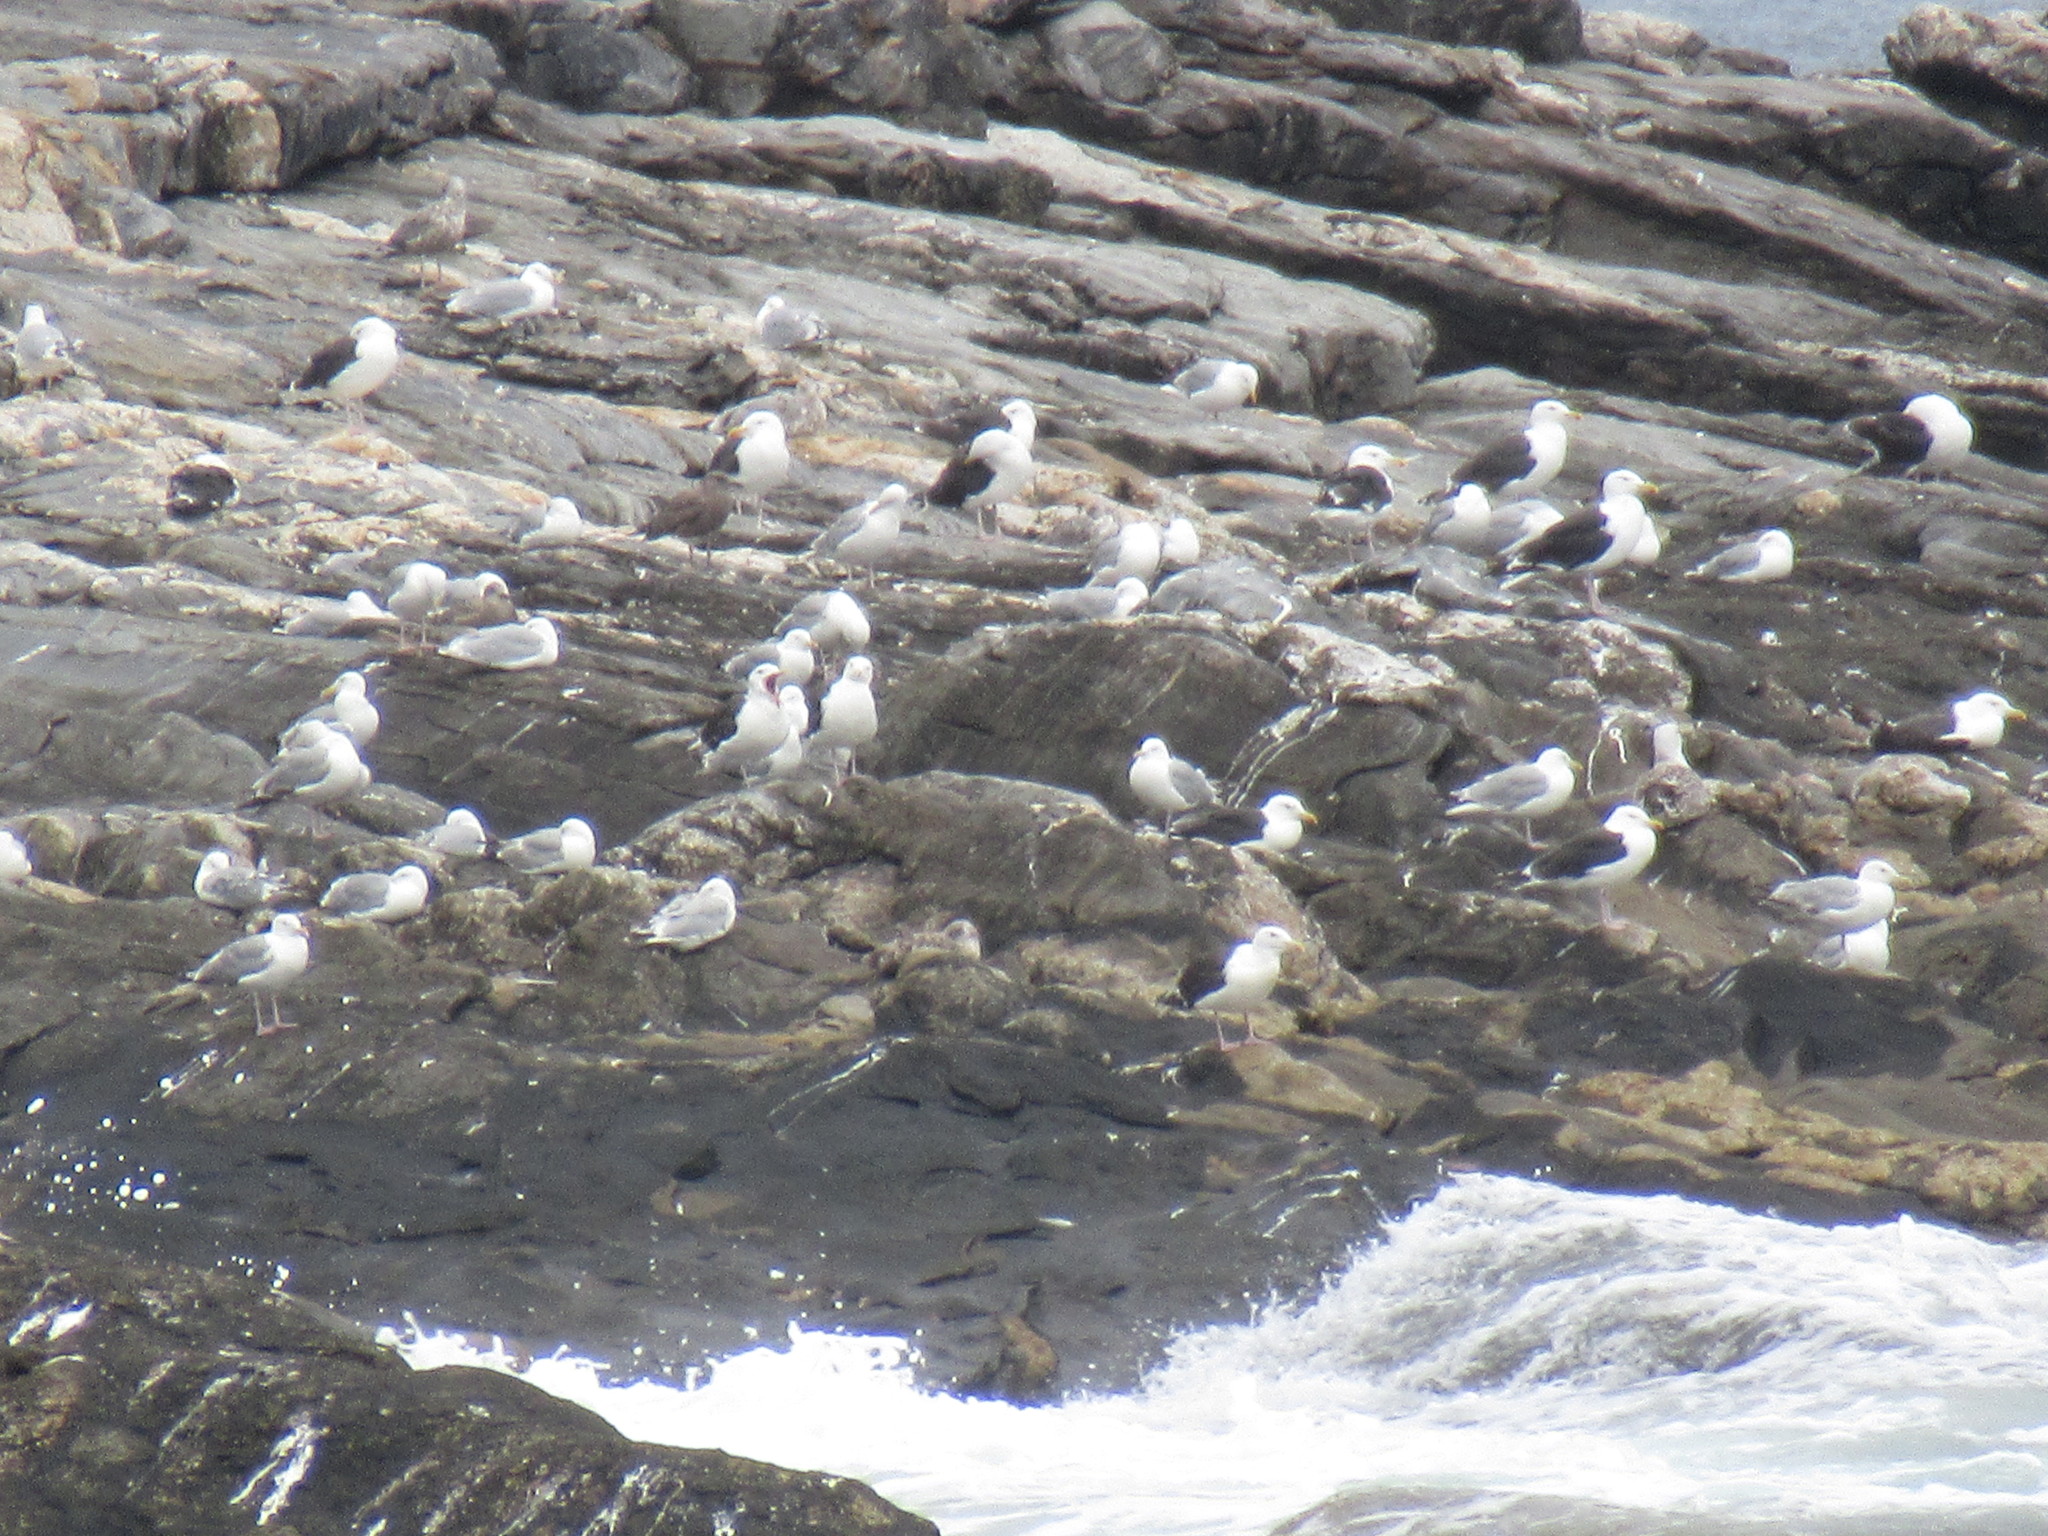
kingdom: Animalia
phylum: Chordata
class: Aves
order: Charadriiformes
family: Laridae
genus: Larus
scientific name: Larus marinus
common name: Great black-backed gull
